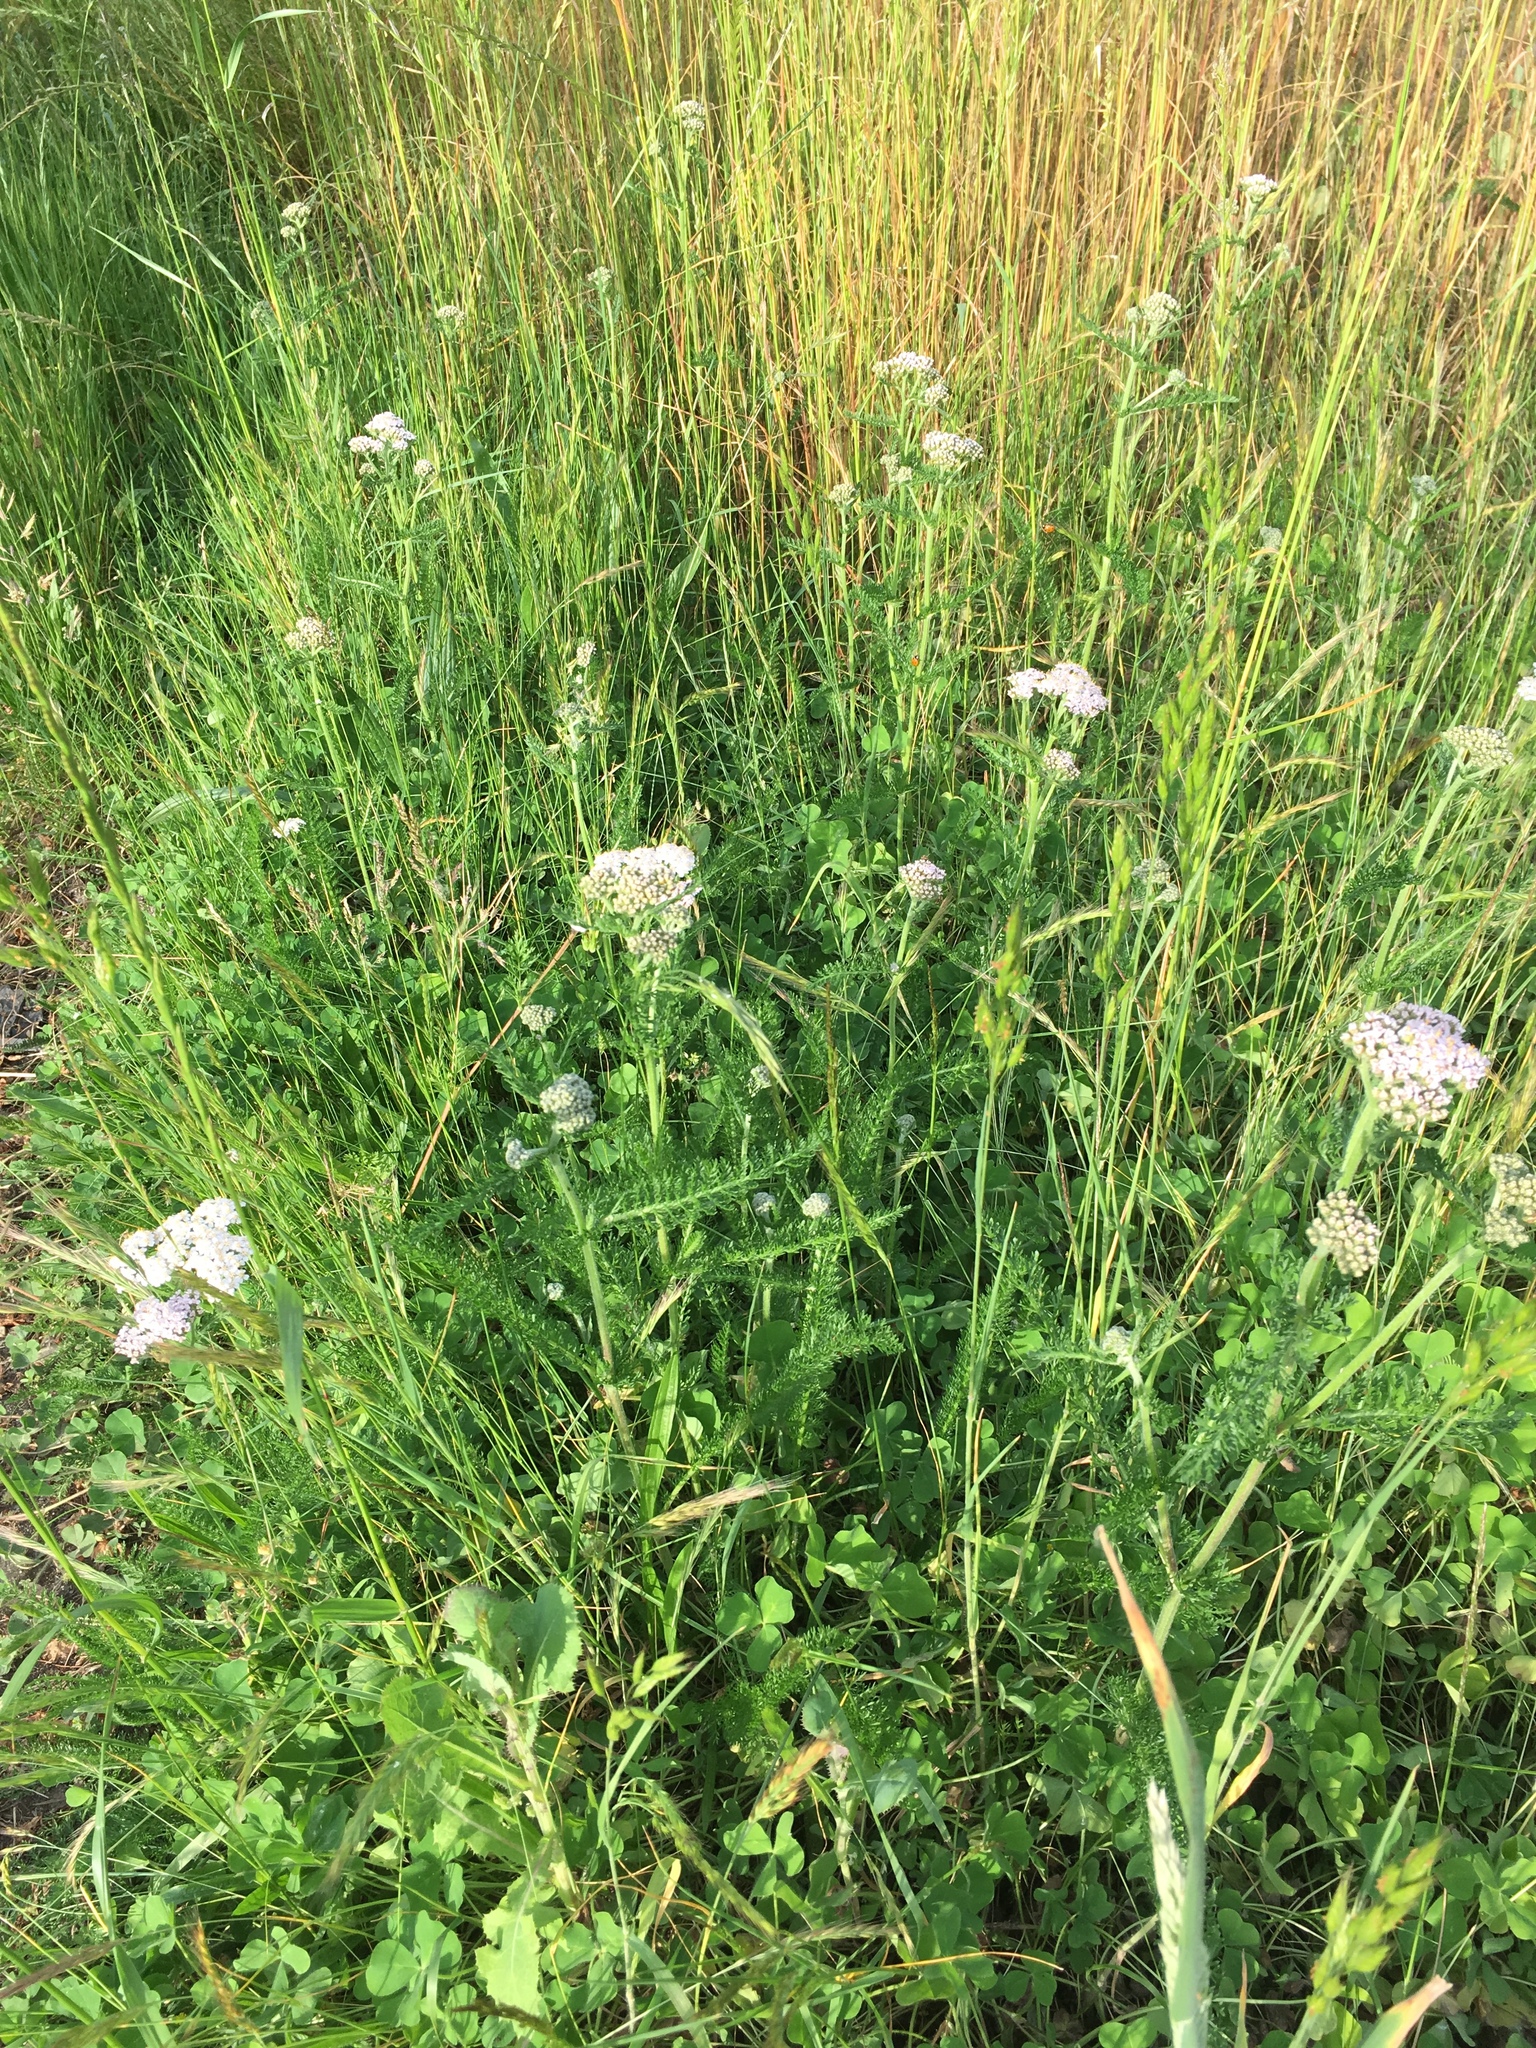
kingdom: Plantae
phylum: Tracheophyta
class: Magnoliopsida
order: Asterales
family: Asteraceae
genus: Achillea
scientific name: Achillea millefolium
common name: Yarrow
